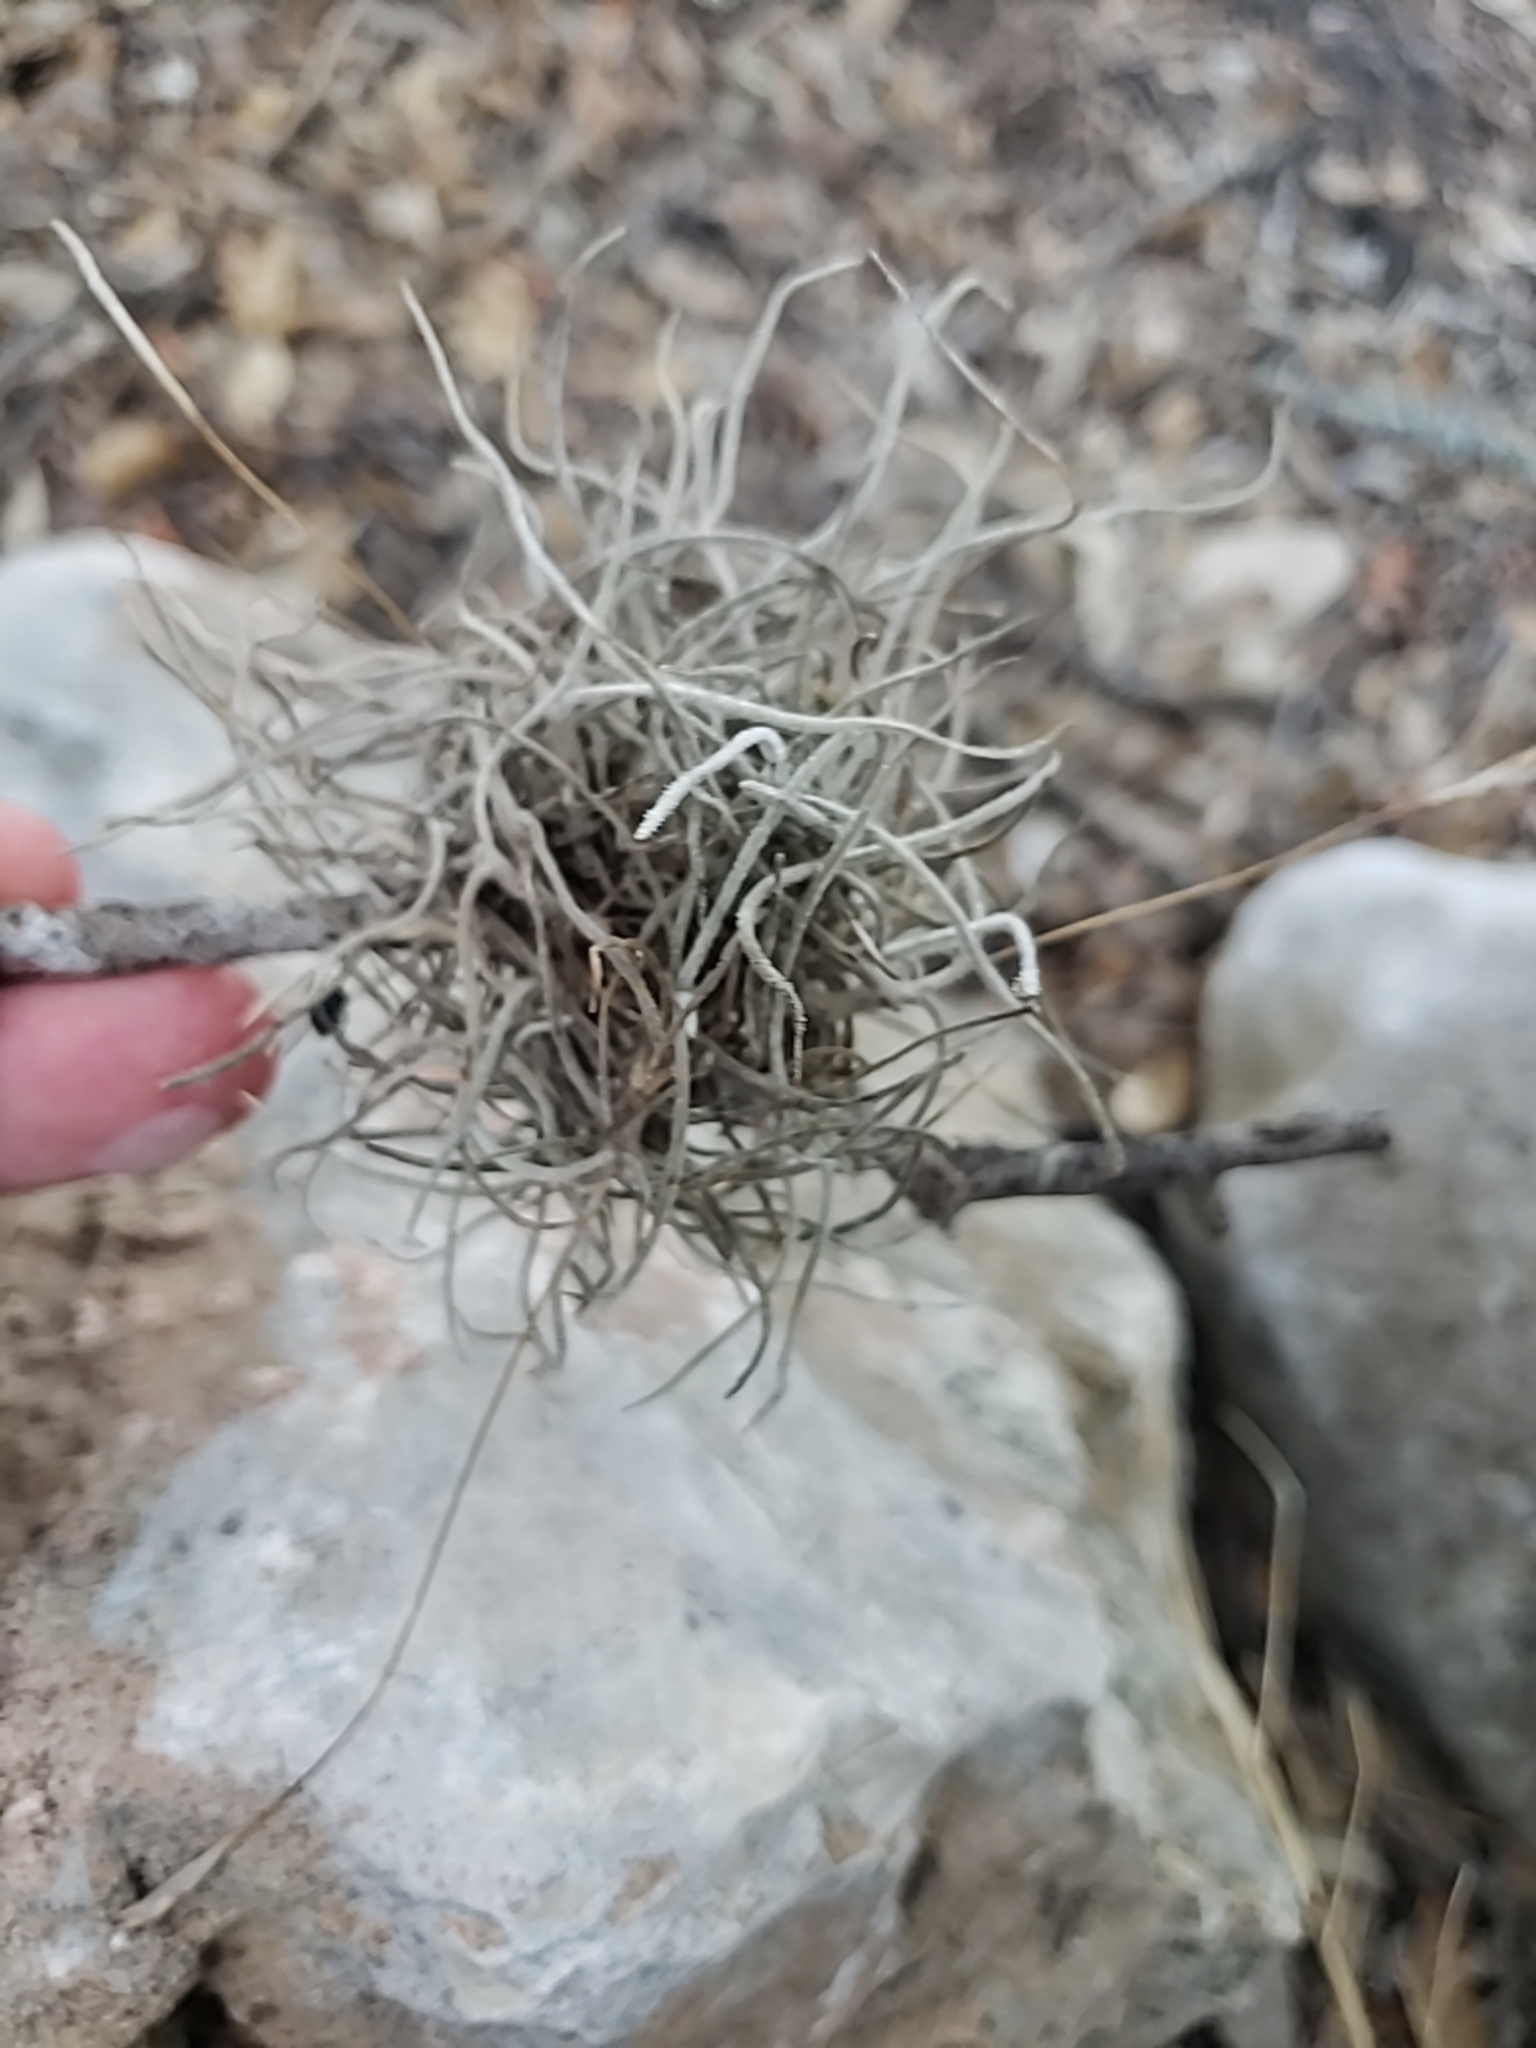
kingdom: Plantae
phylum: Tracheophyta
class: Liliopsida
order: Poales
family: Bromeliaceae
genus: Tillandsia
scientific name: Tillandsia recurvata
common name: Small ballmoss
